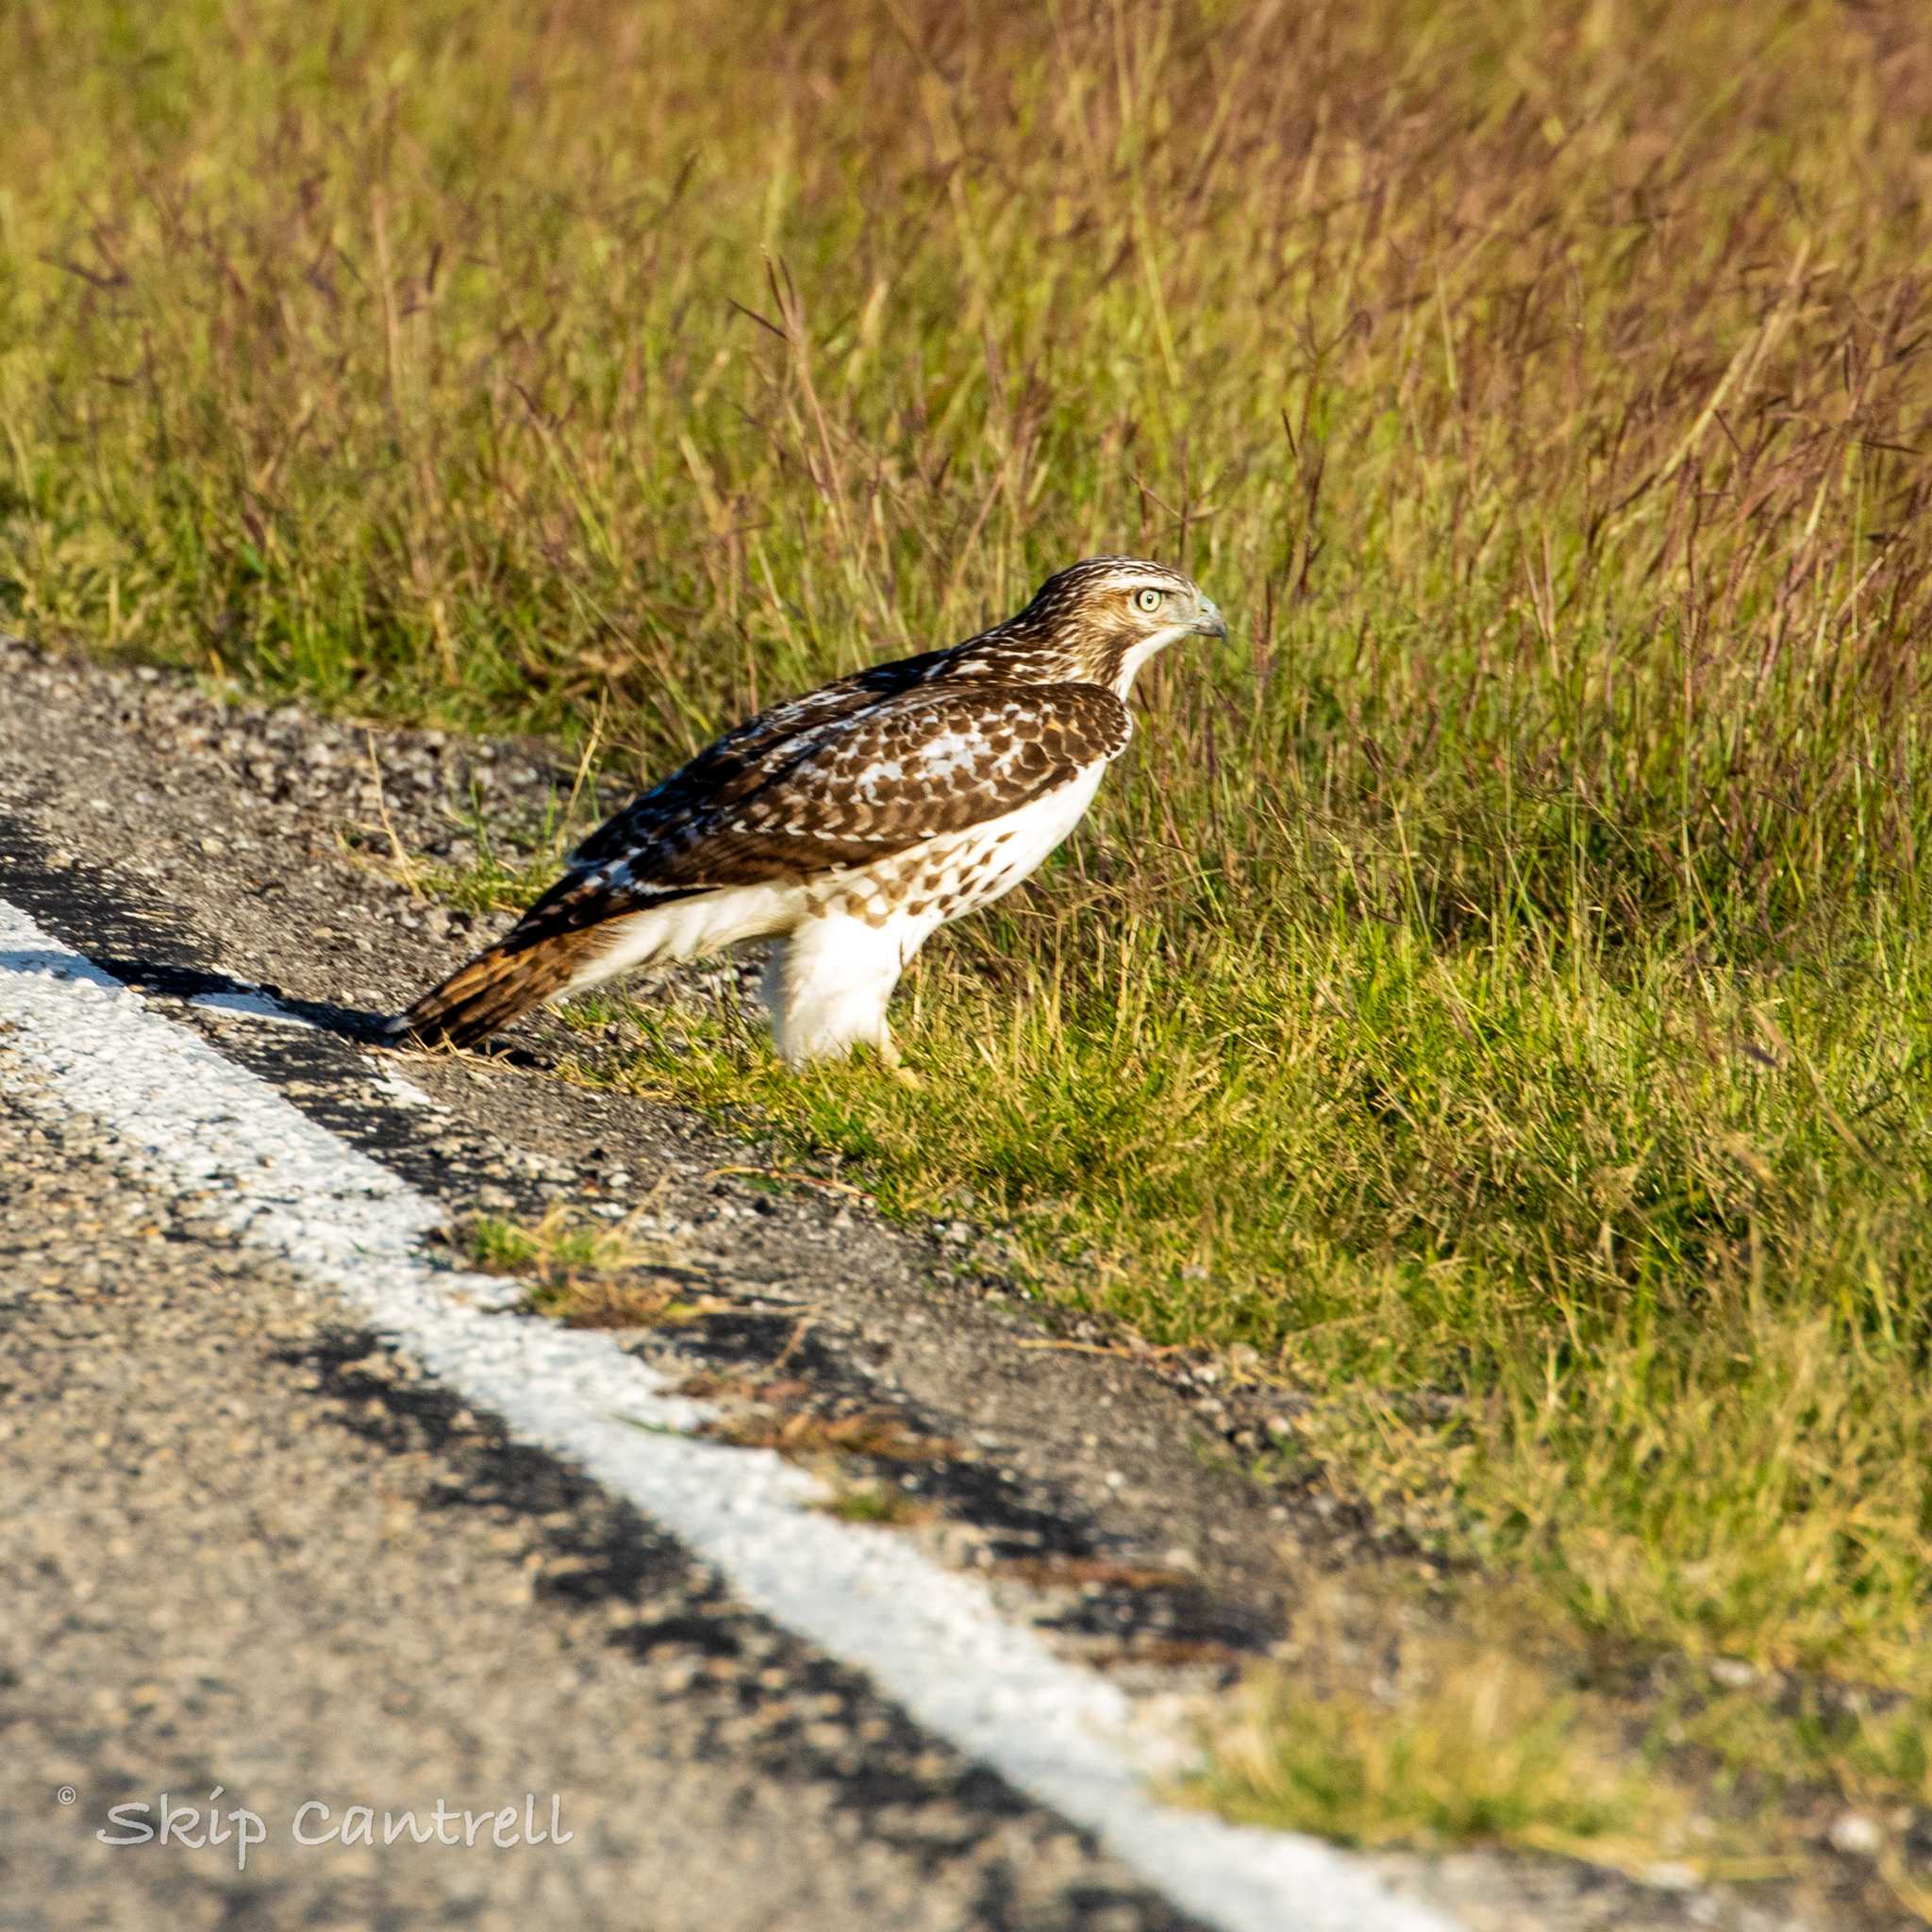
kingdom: Animalia
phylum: Chordata
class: Aves
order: Accipitriformes
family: Accipitridae
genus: Buteo
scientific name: Buteo jamaicensis
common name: Red-tailed hawk
